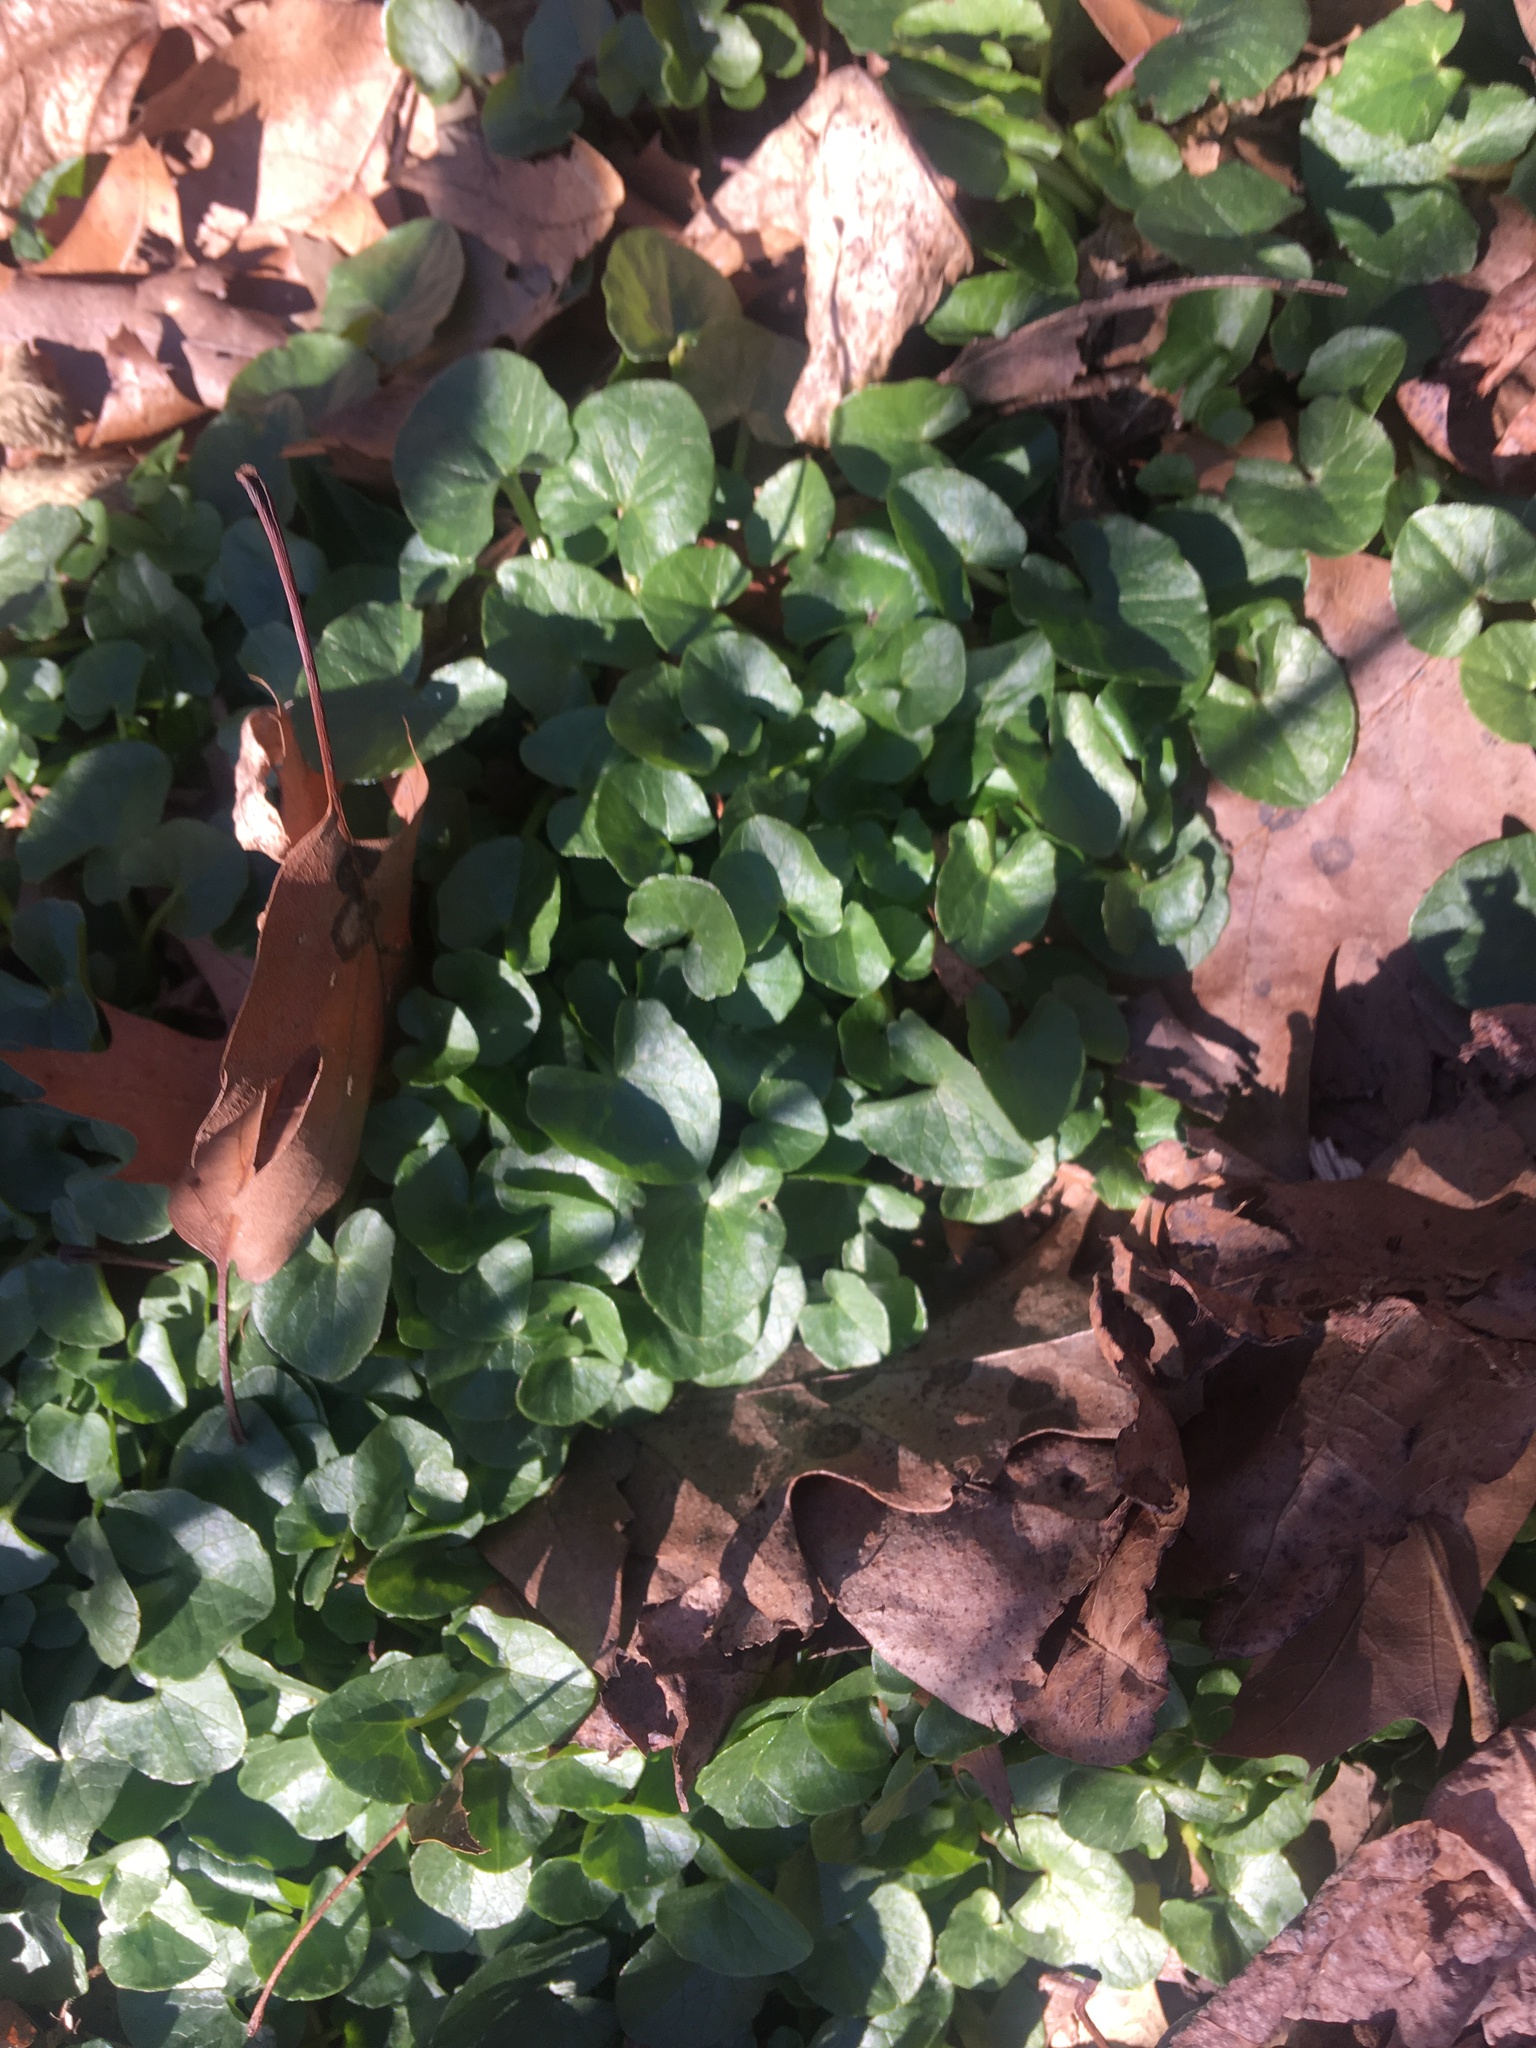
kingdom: Plantae
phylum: Tracheophyta
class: Magnoliopsida
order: Ranunculales
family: Ranunculaceae
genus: Ficaria
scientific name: Ficaria verna
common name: Lesser celandine
